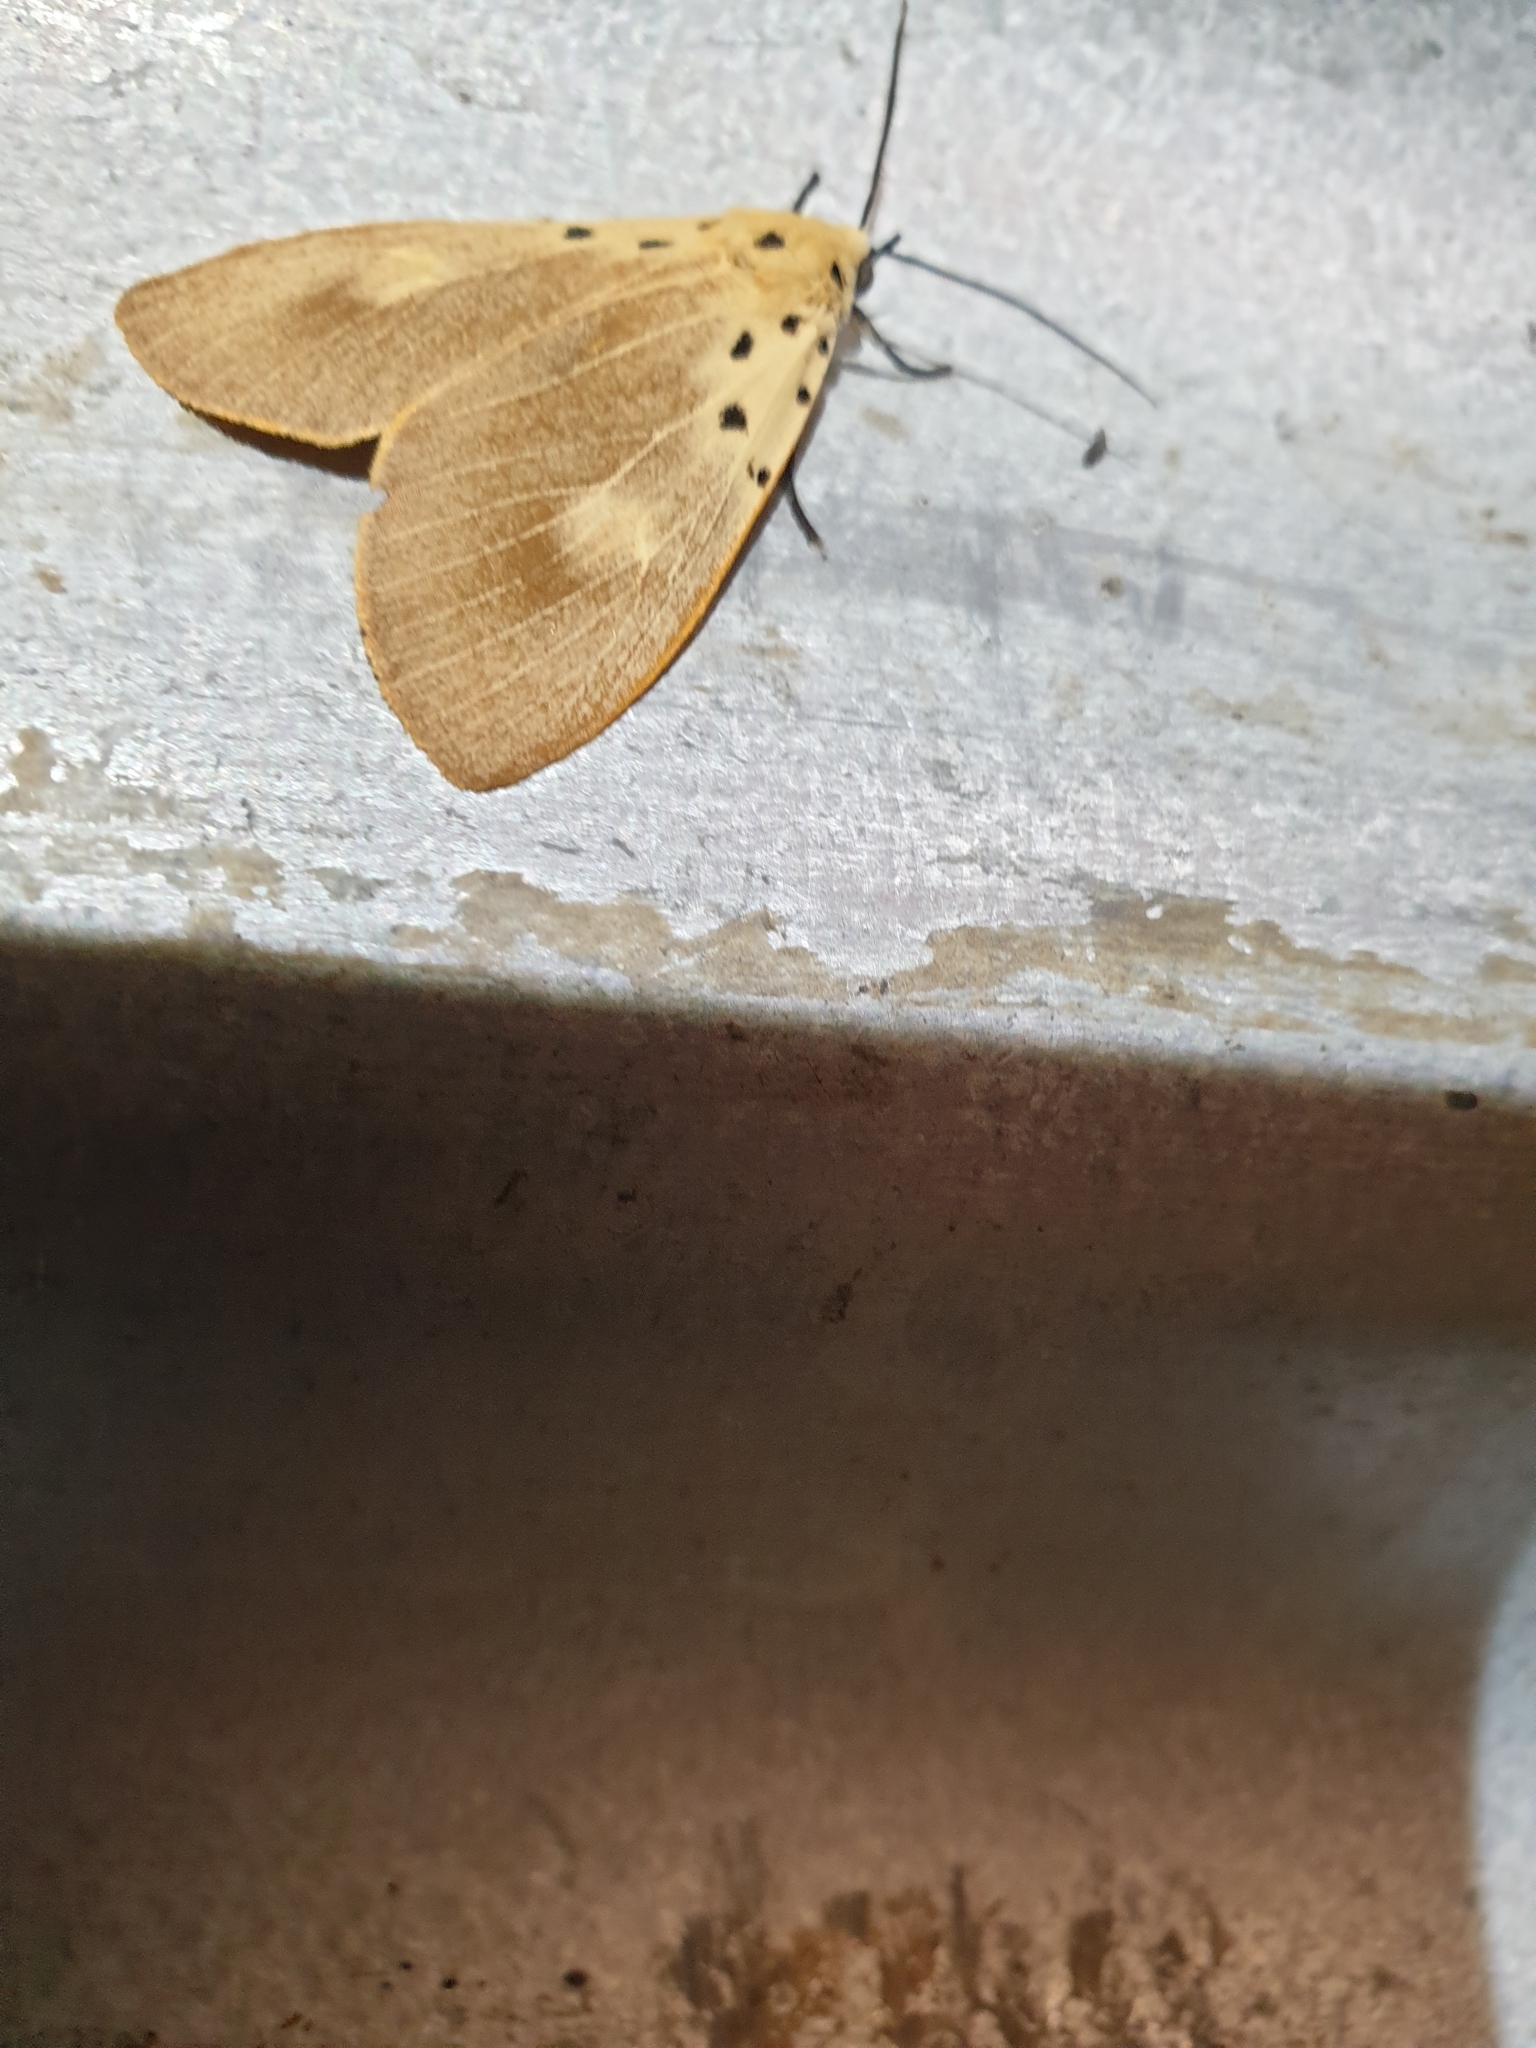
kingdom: Animalia
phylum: Arthropoda
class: Insecta
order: Lepidoptera
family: Erebidae
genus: Asota
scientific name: Asota iodamia
